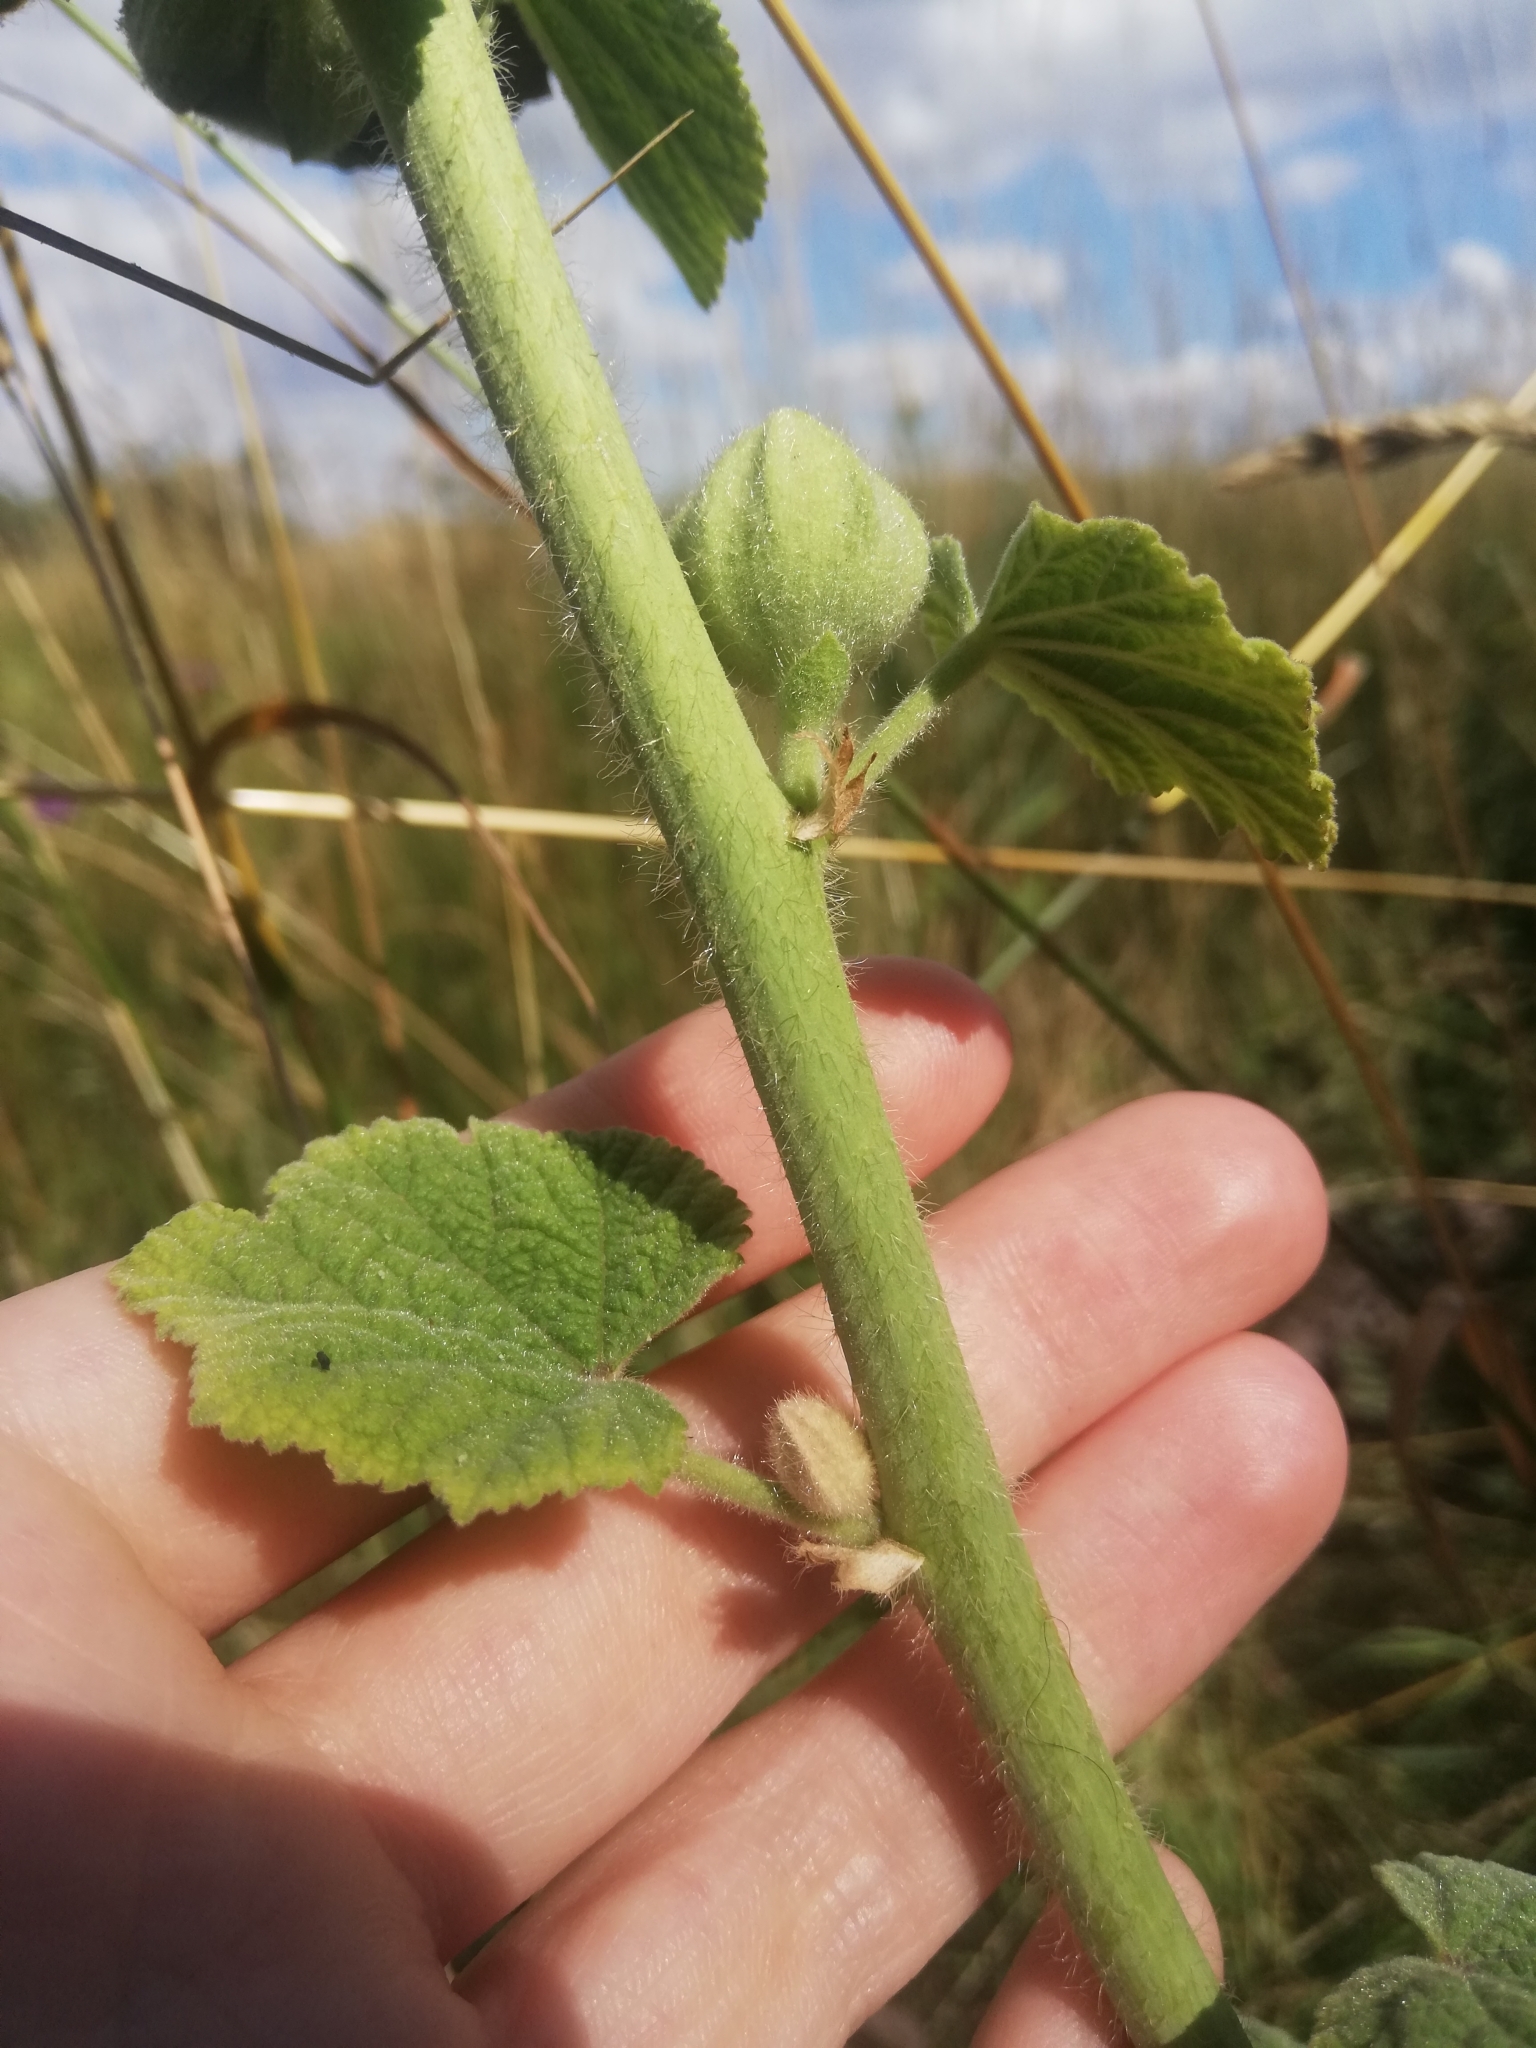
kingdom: Plantae
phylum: Tracheophyta
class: Magnoliopsida
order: Malvales
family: Malvaceae
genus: Alcea
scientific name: Alcea rosea
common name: Hollyhock
